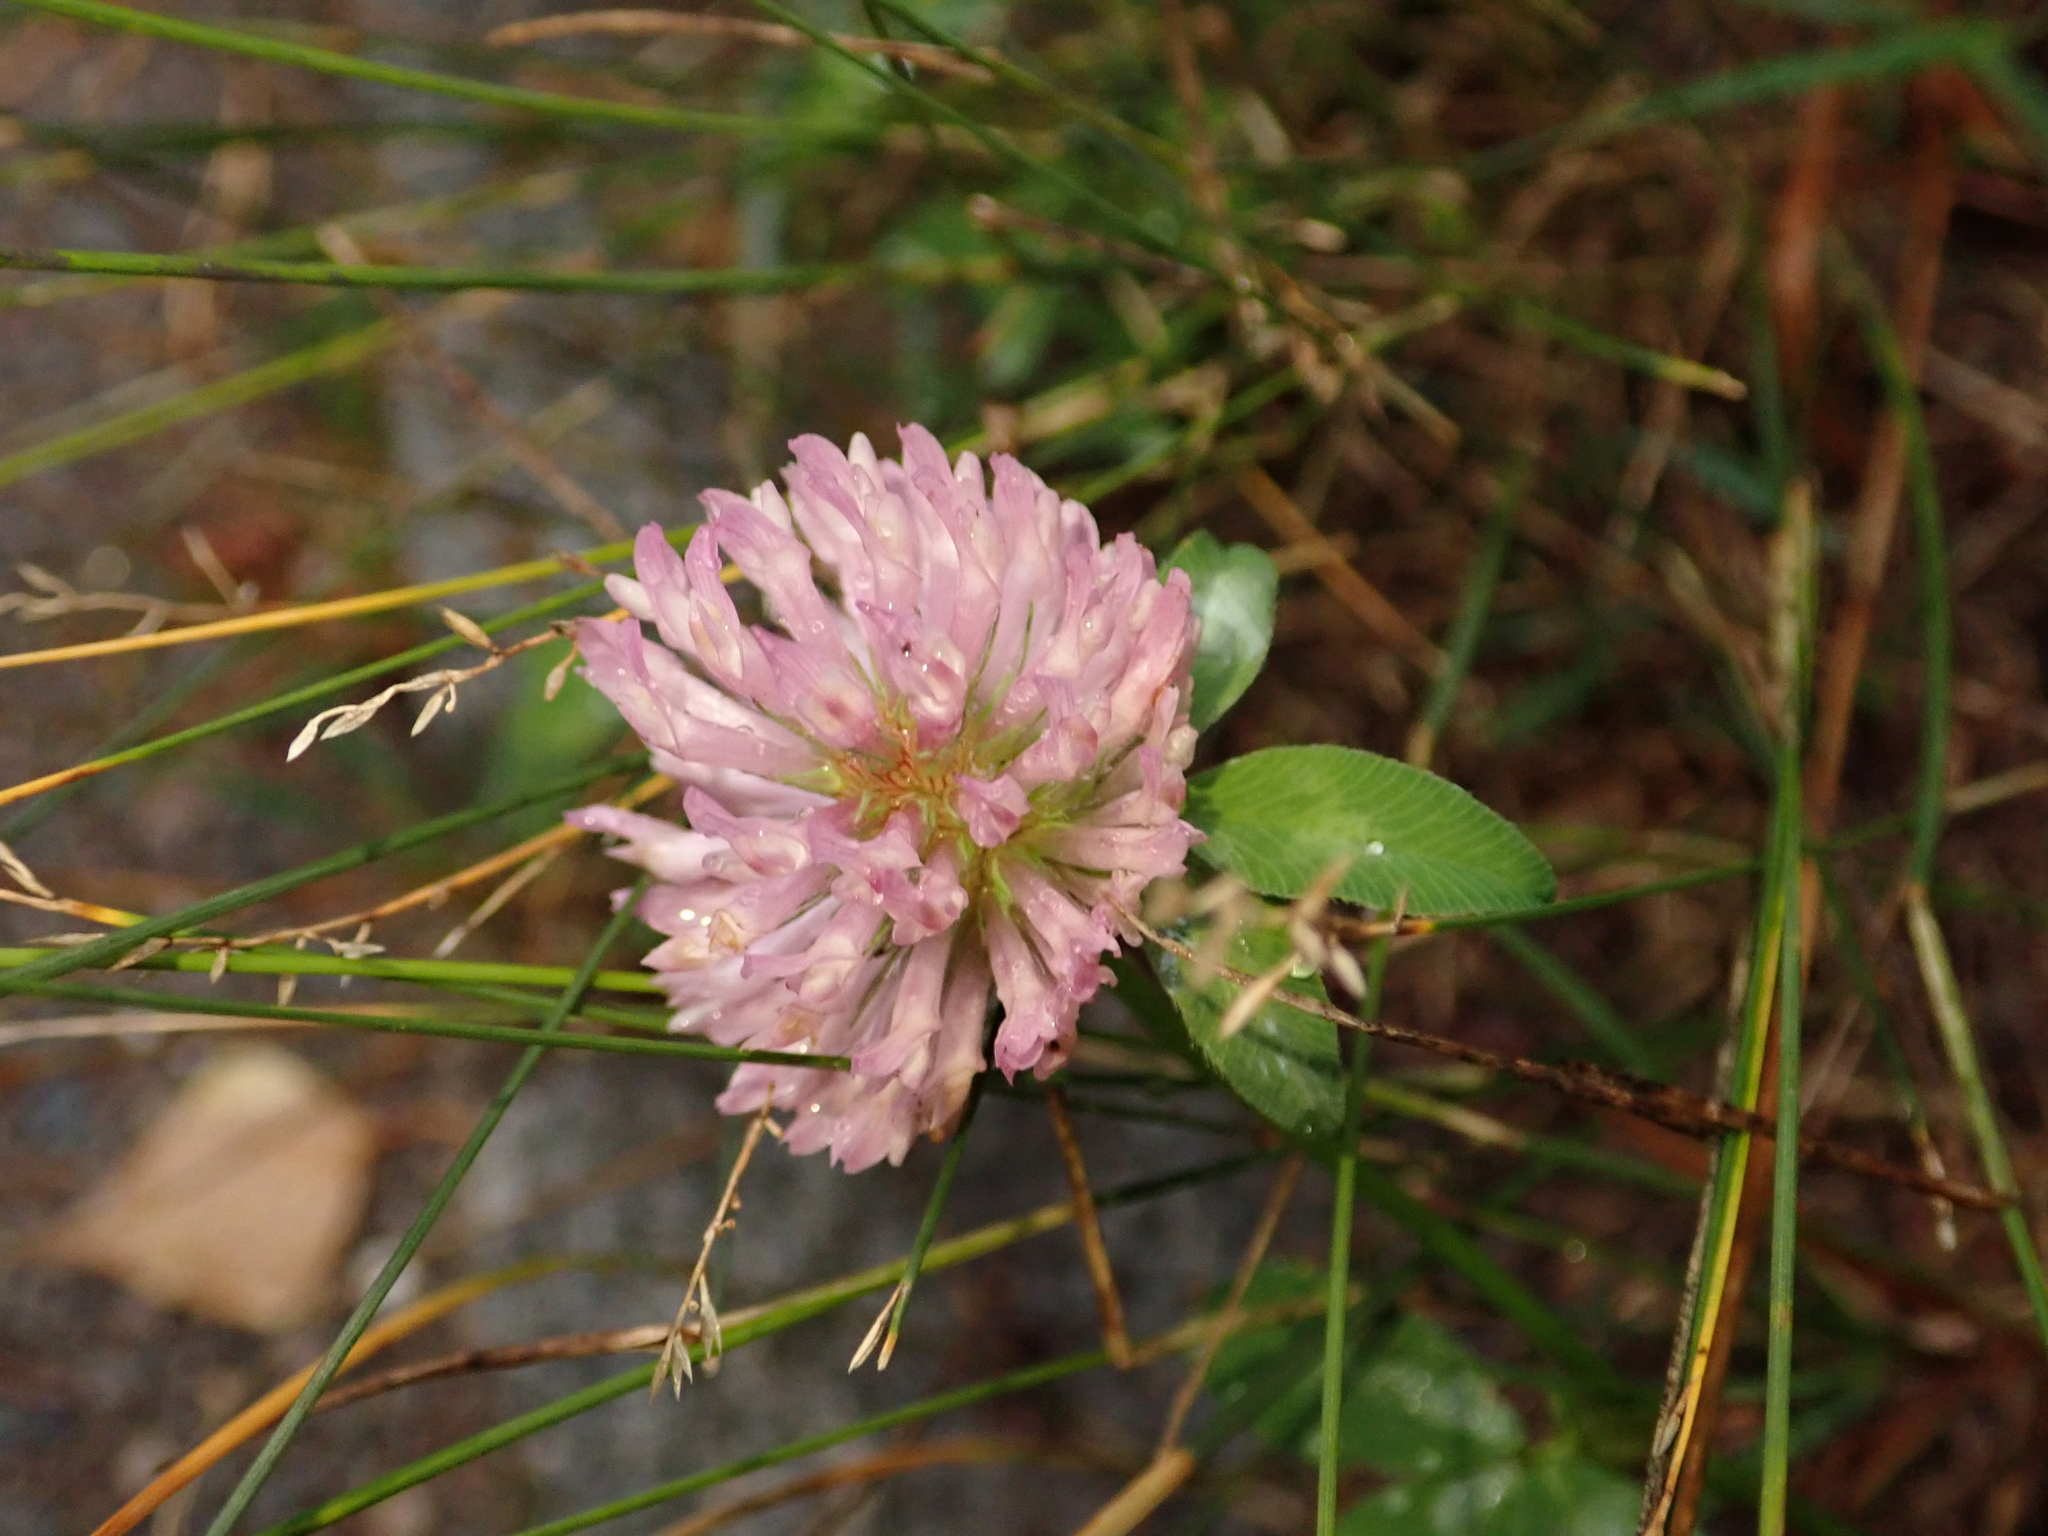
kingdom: Plantae
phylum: Tracheophyta
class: Magnoliopsida
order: Fabales
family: Fabaceae
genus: Trifolium
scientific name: Trifolium pratense
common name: Red clover
